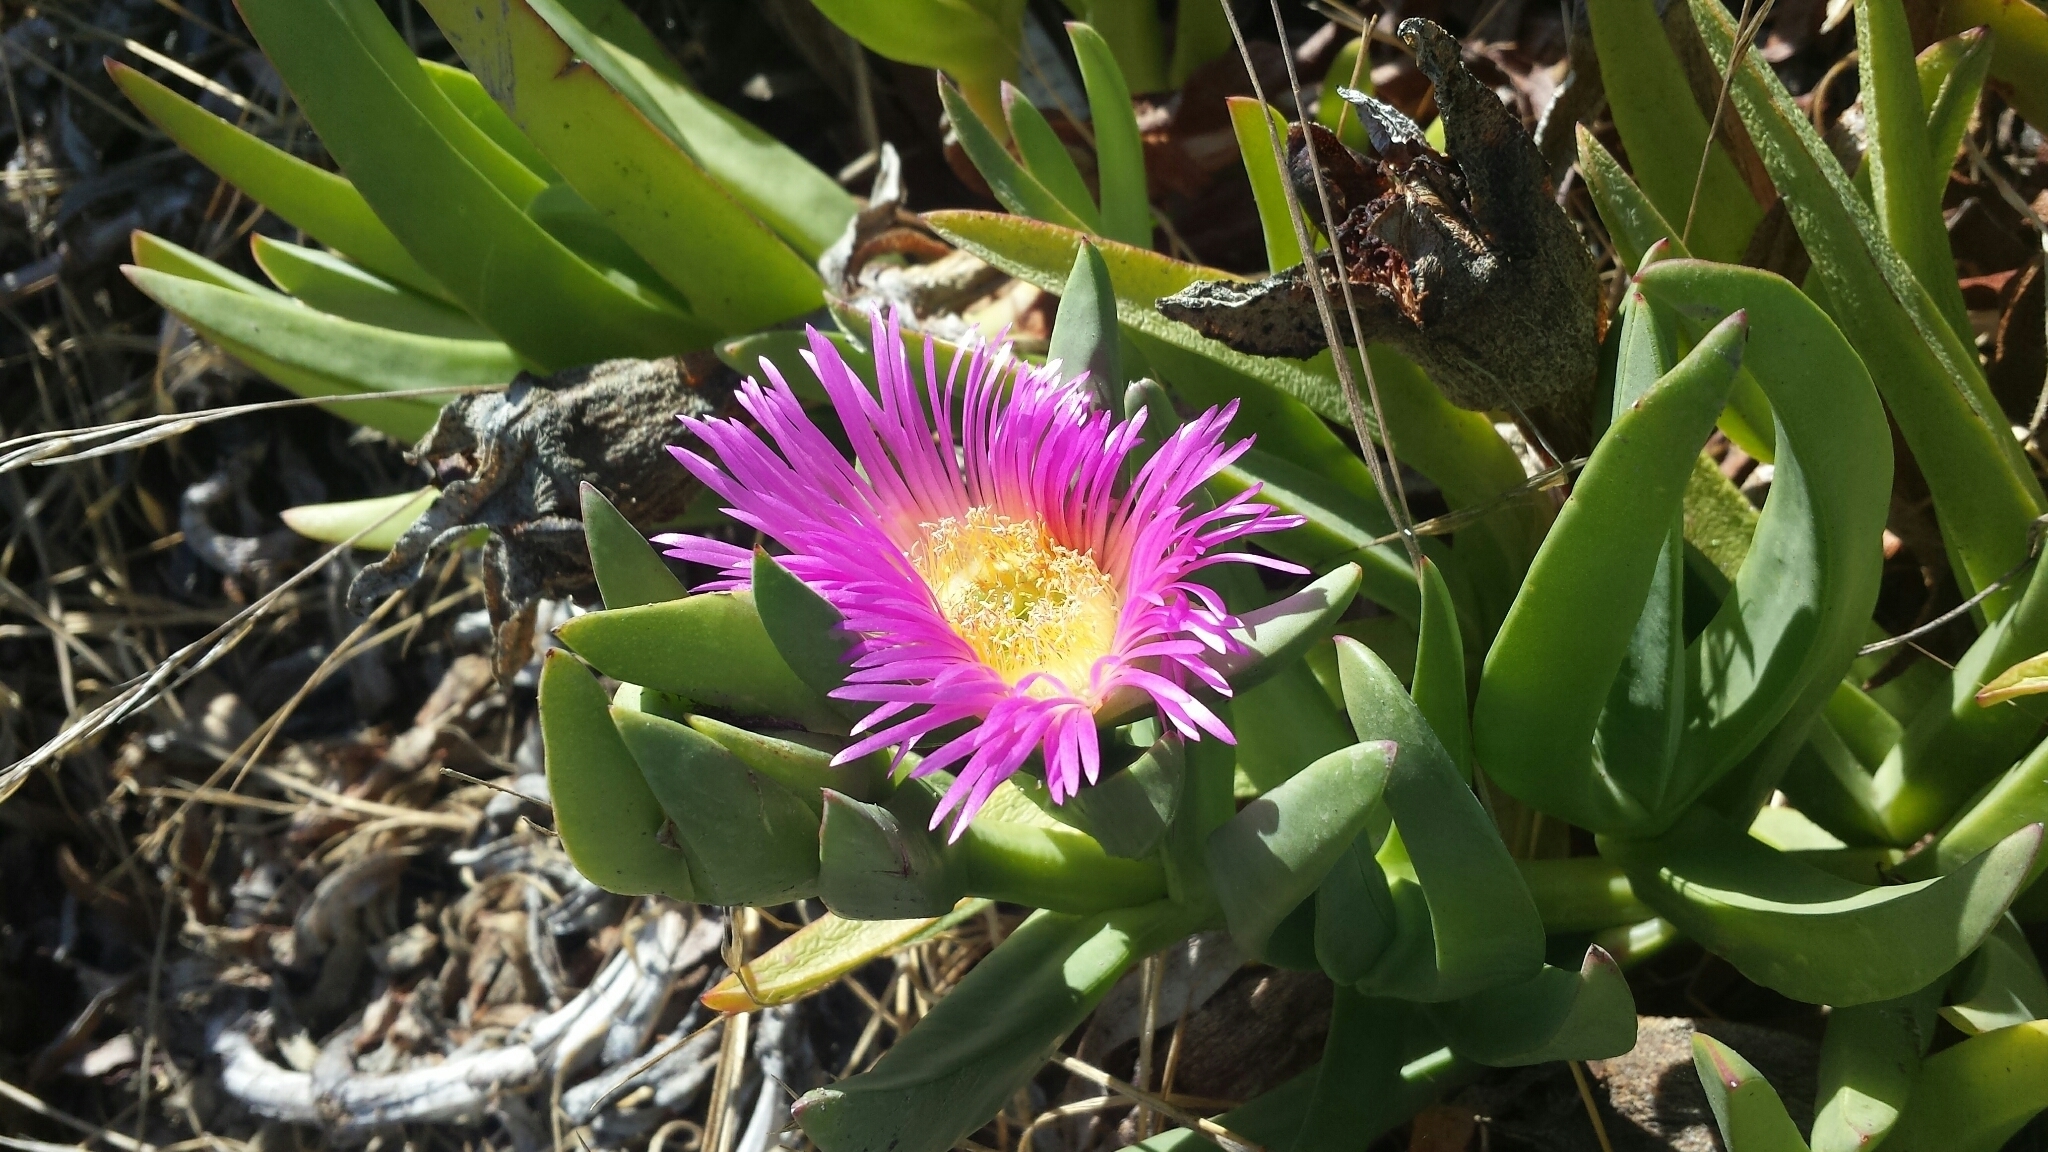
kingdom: Plantae
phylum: Tracheophyta
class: Magnoliopsida
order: Caryophyllales
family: Aizoaceae
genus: Carpobrotus
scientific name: Carpobrotus chilensis
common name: Sea fig
